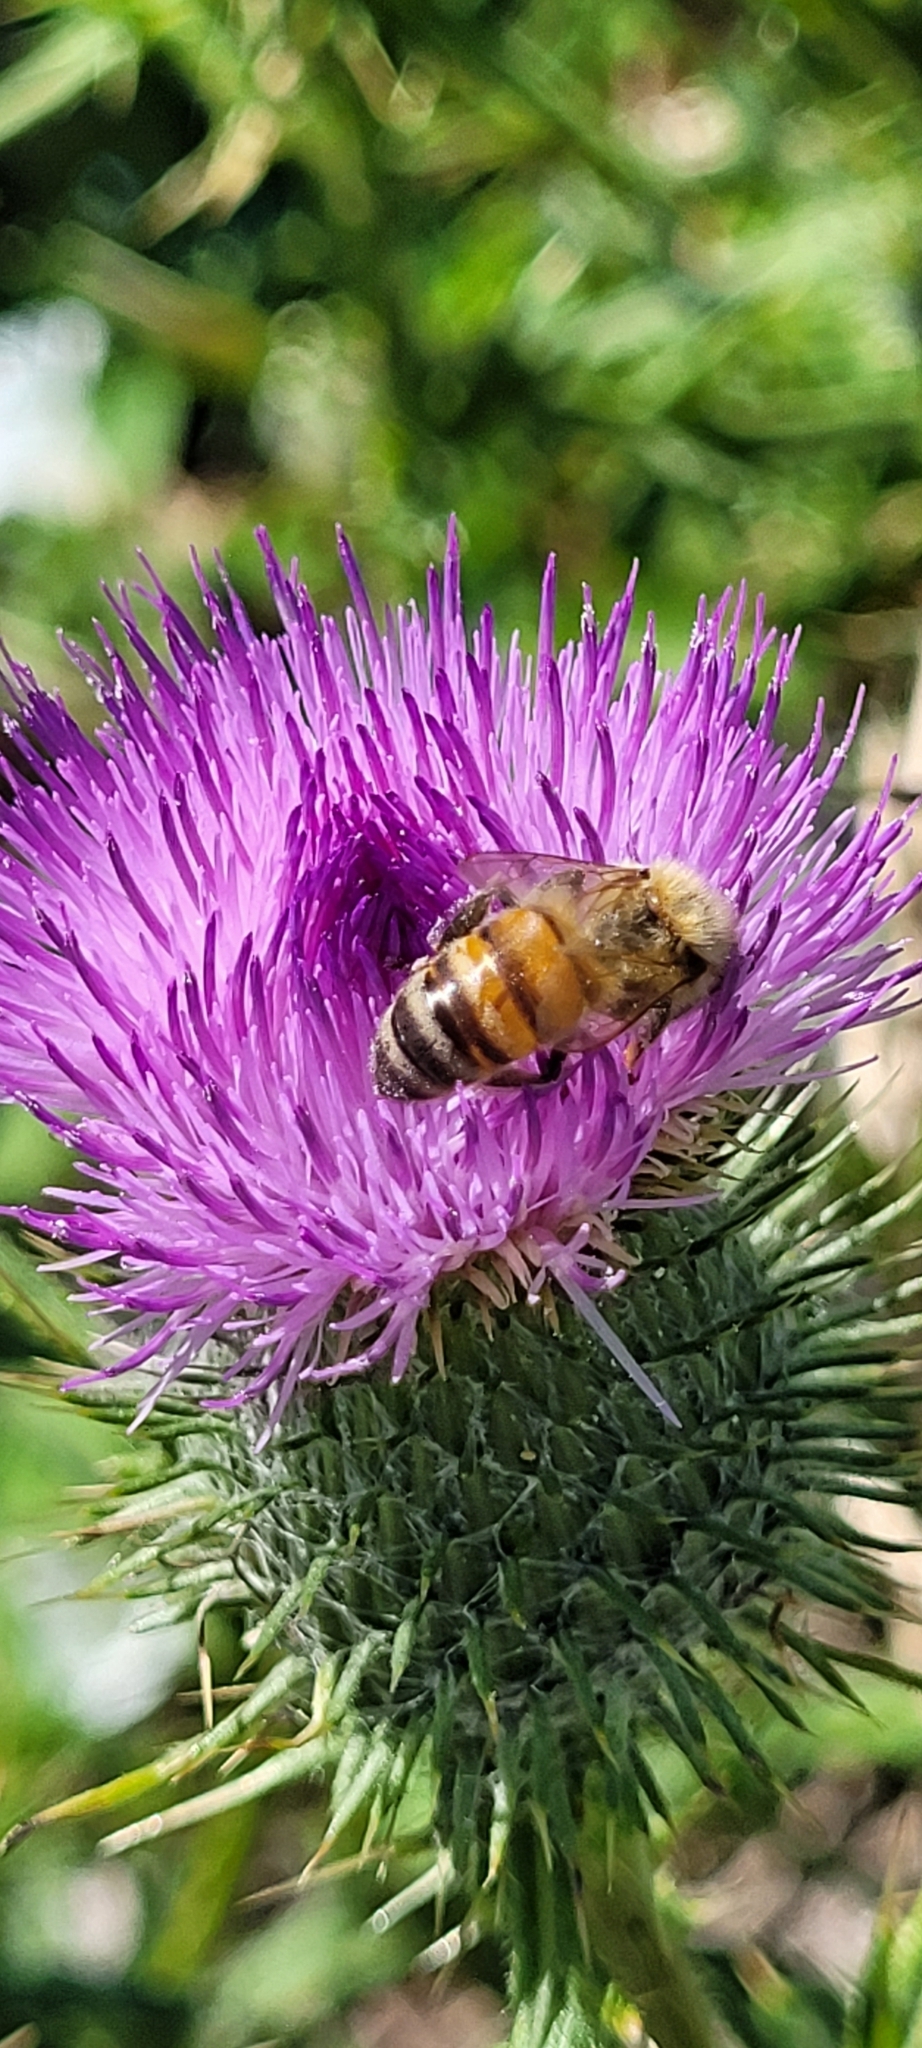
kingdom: Animalia
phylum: Arthropoda
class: Insecta
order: Hymenoptera
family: Apidae
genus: Apis
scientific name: Apis mellifera
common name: Honey bee
